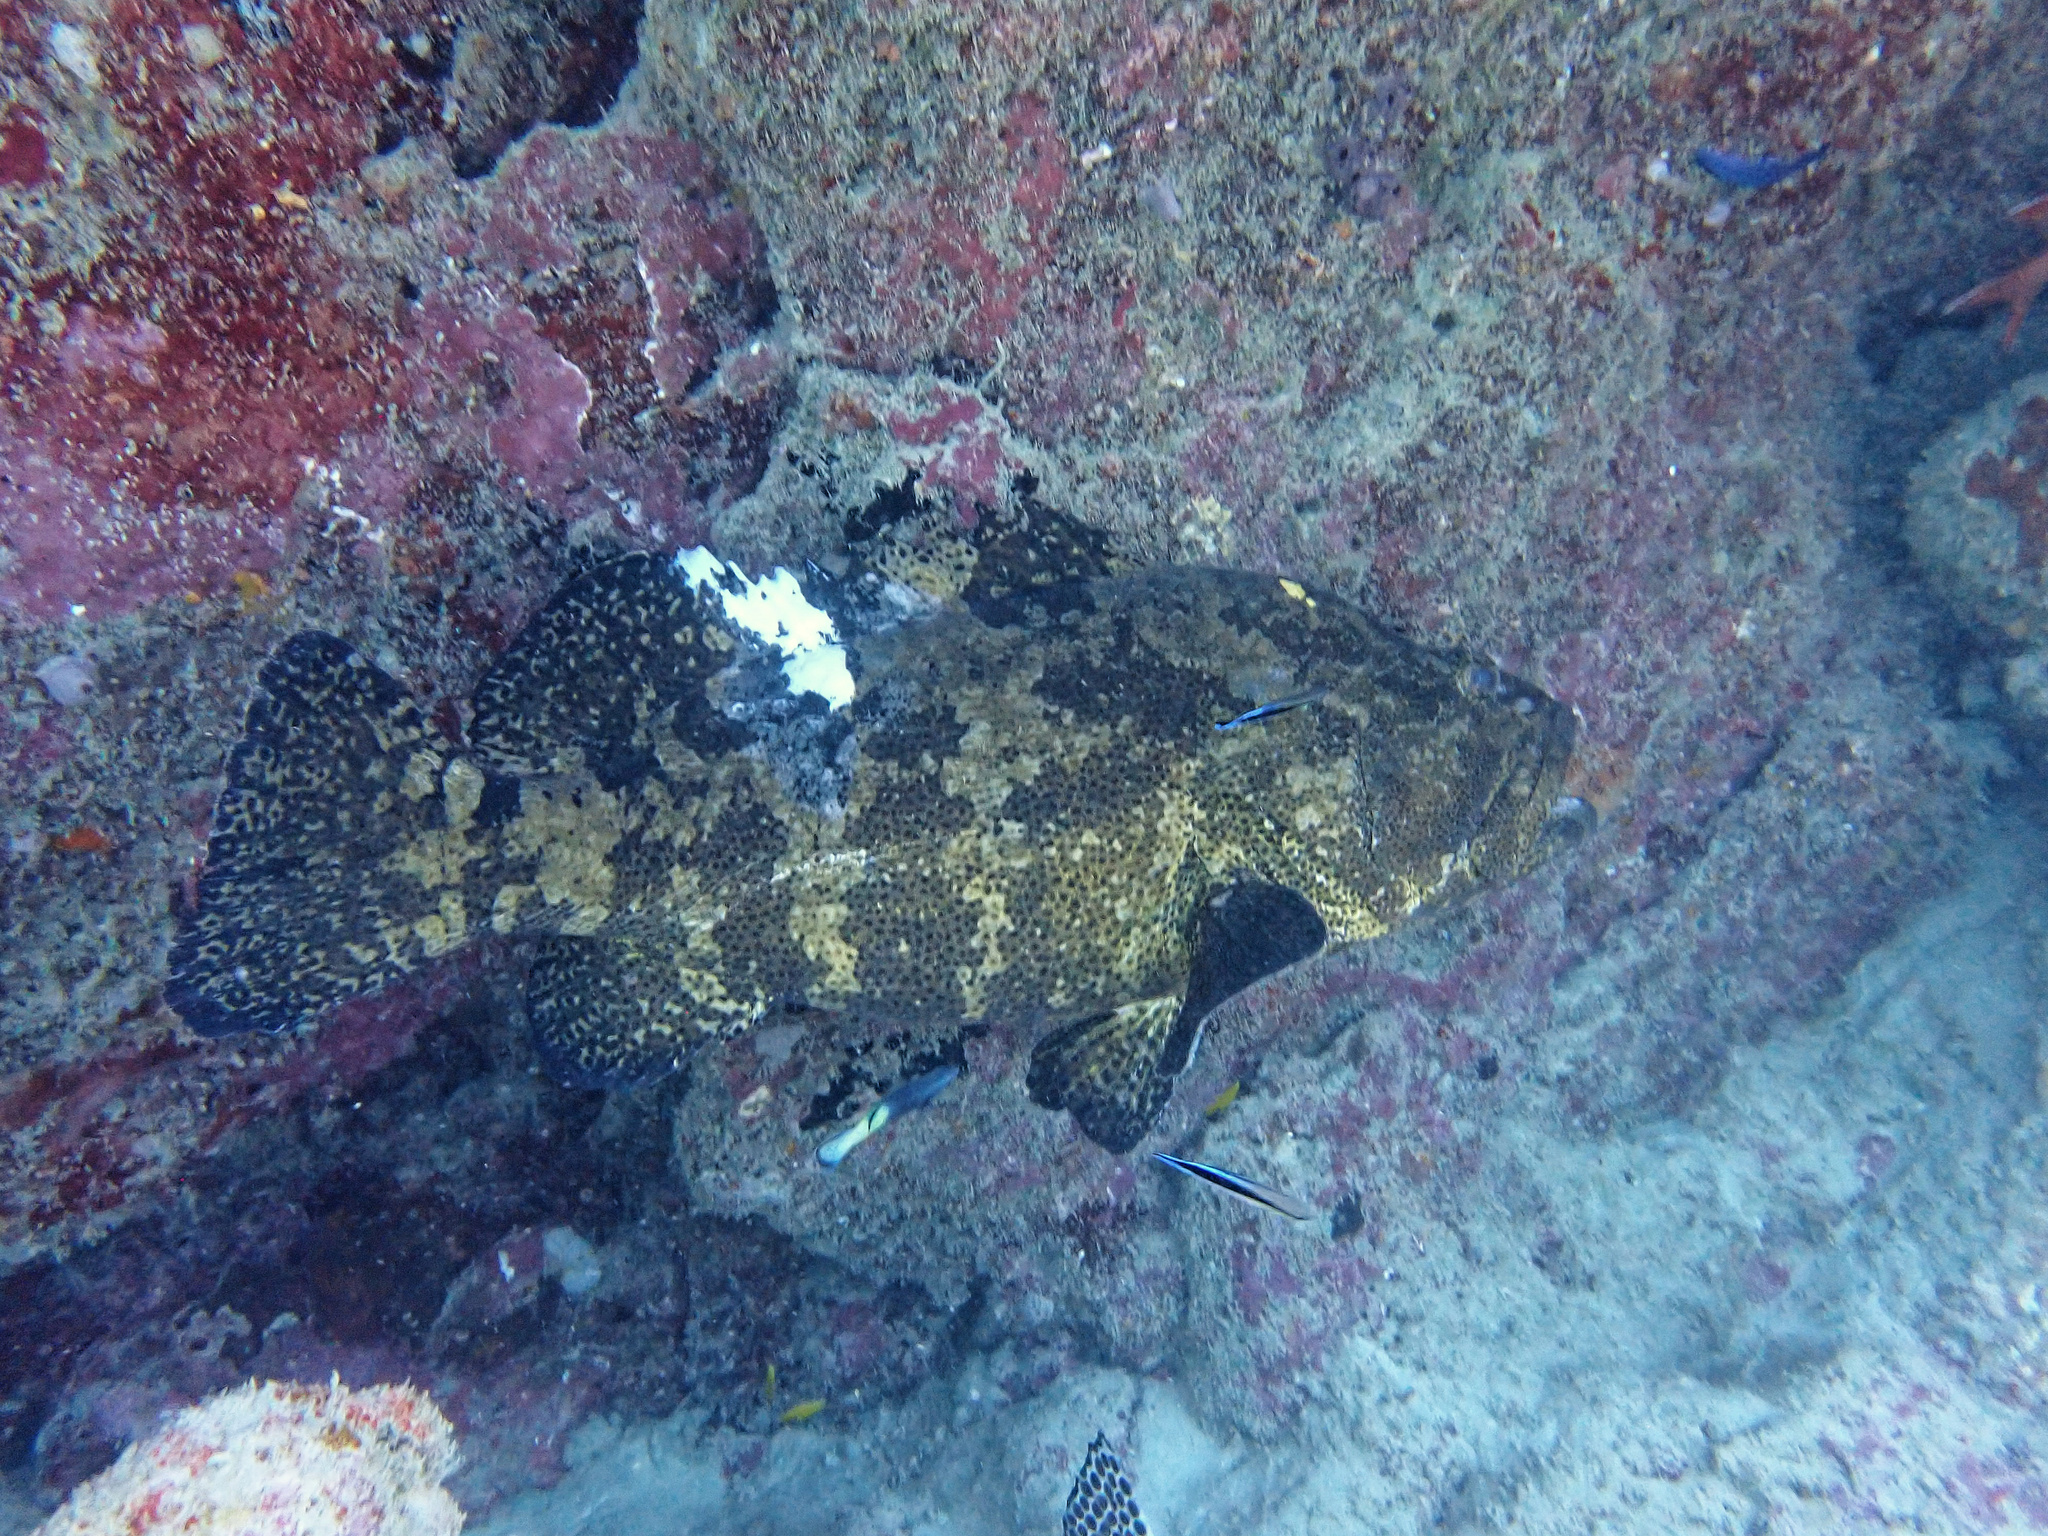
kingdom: Animalia
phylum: Chordata
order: Perciformes
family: Serranidae
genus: Epinephelus
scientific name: Epinephelus fuscoguttatus
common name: Brown-marbled grouper
